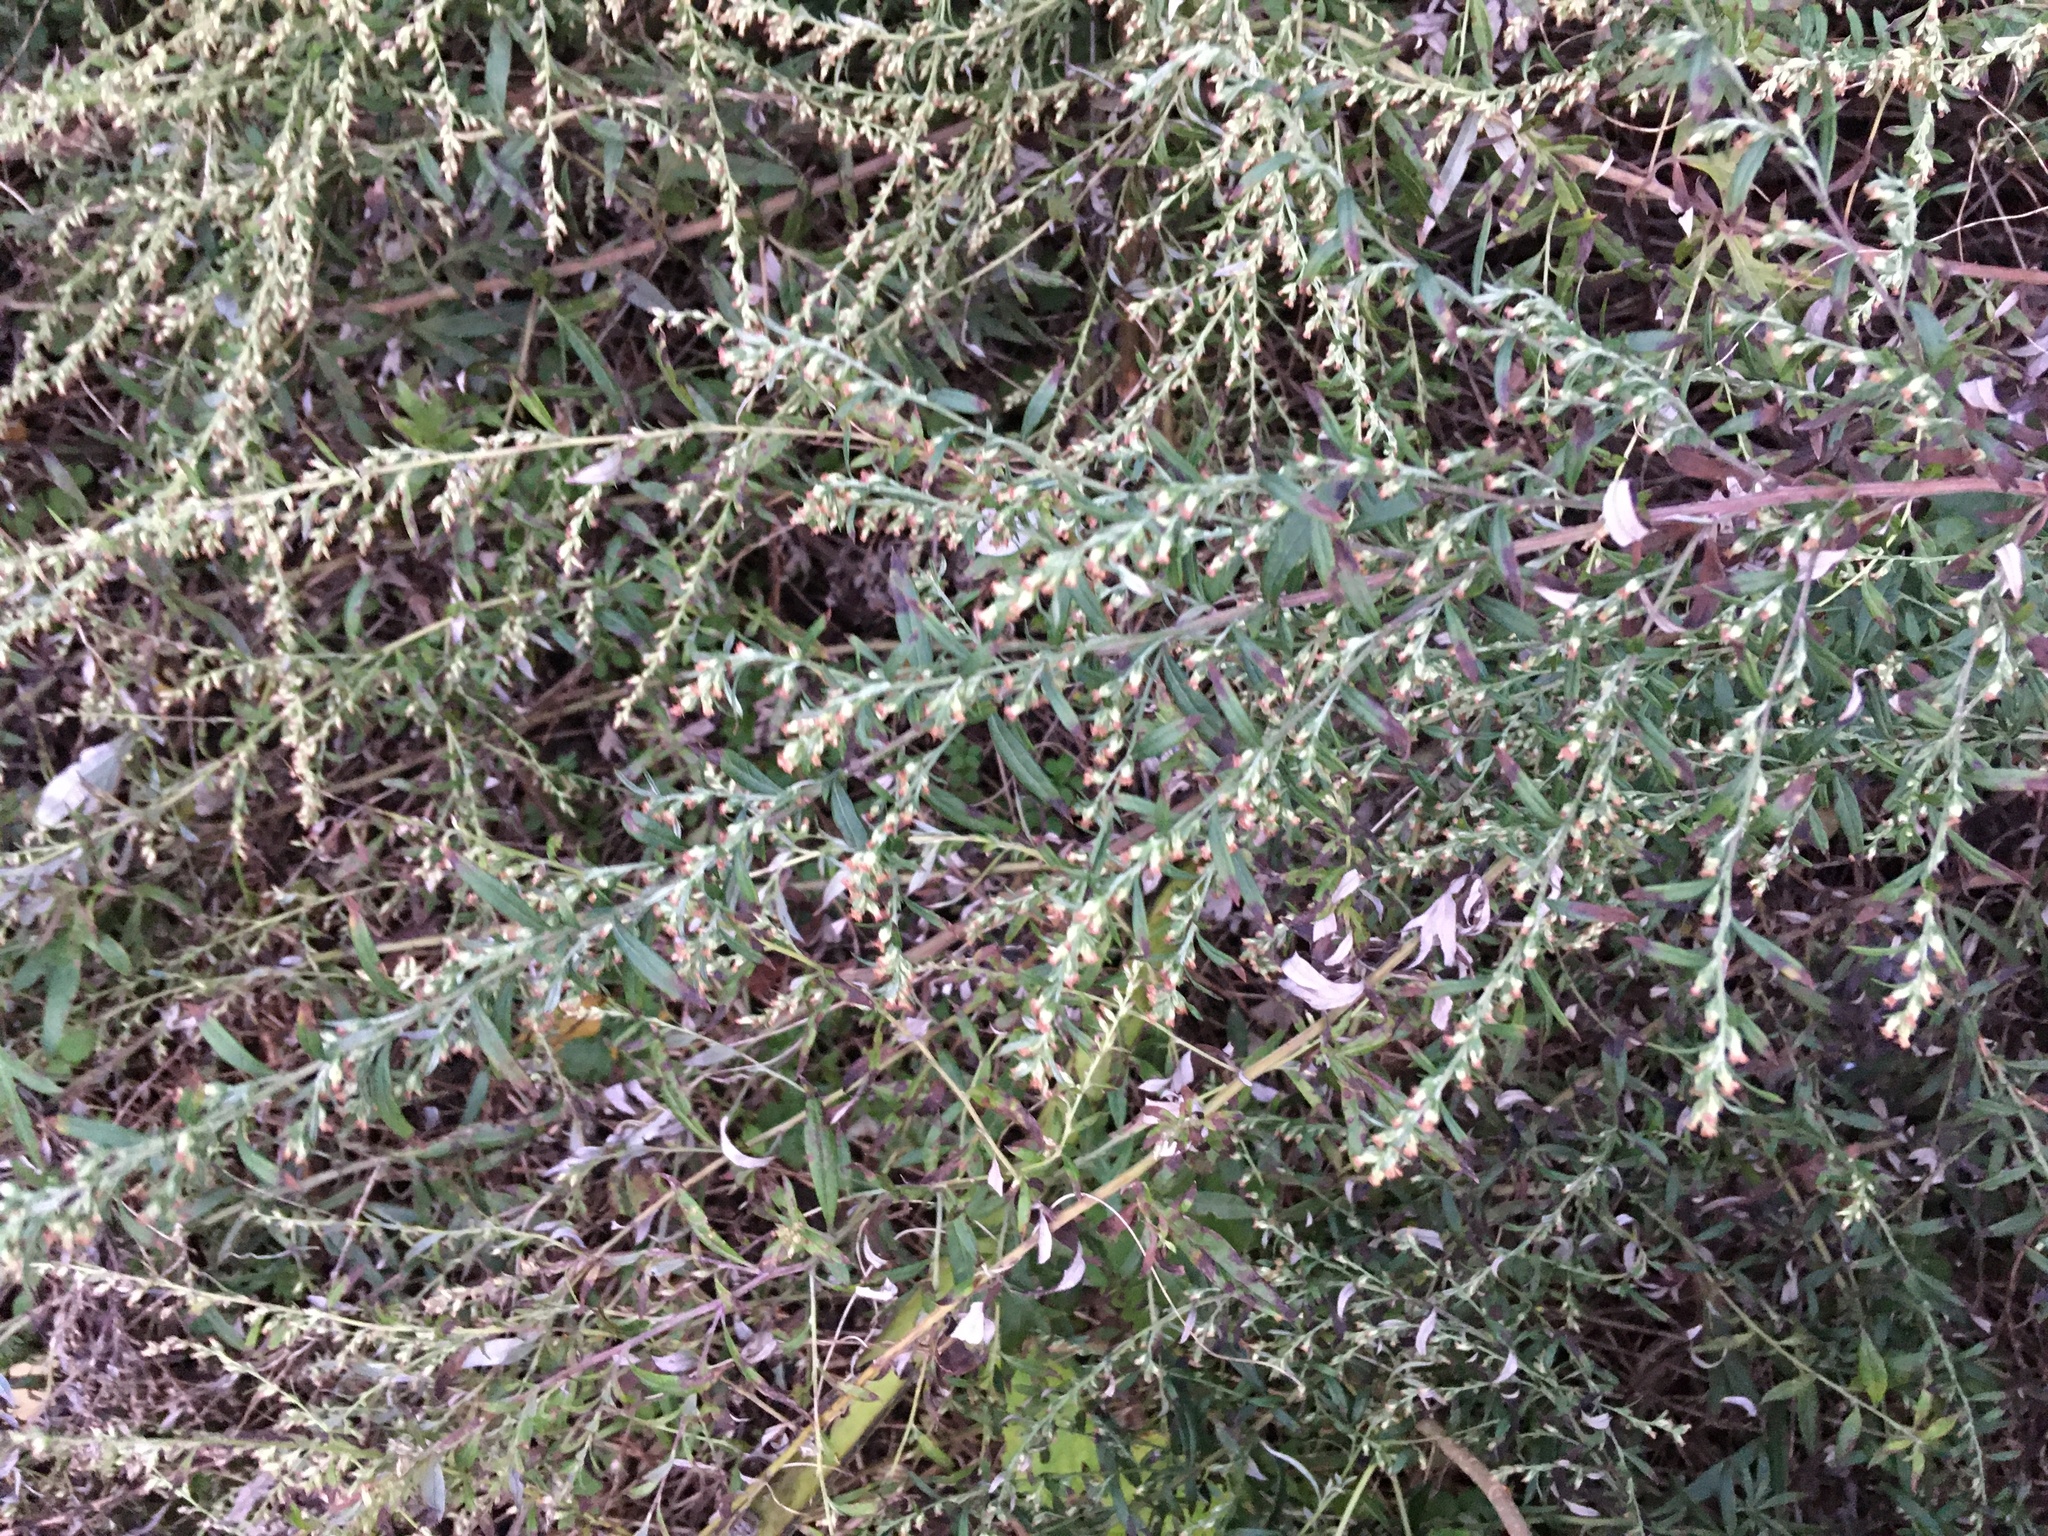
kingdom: Plantae
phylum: Tracheophyta
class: Magnoliopsida
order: Asterales
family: Asteraceae
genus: Artemisia
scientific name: Artemisia vulgaris
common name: Mugwort
